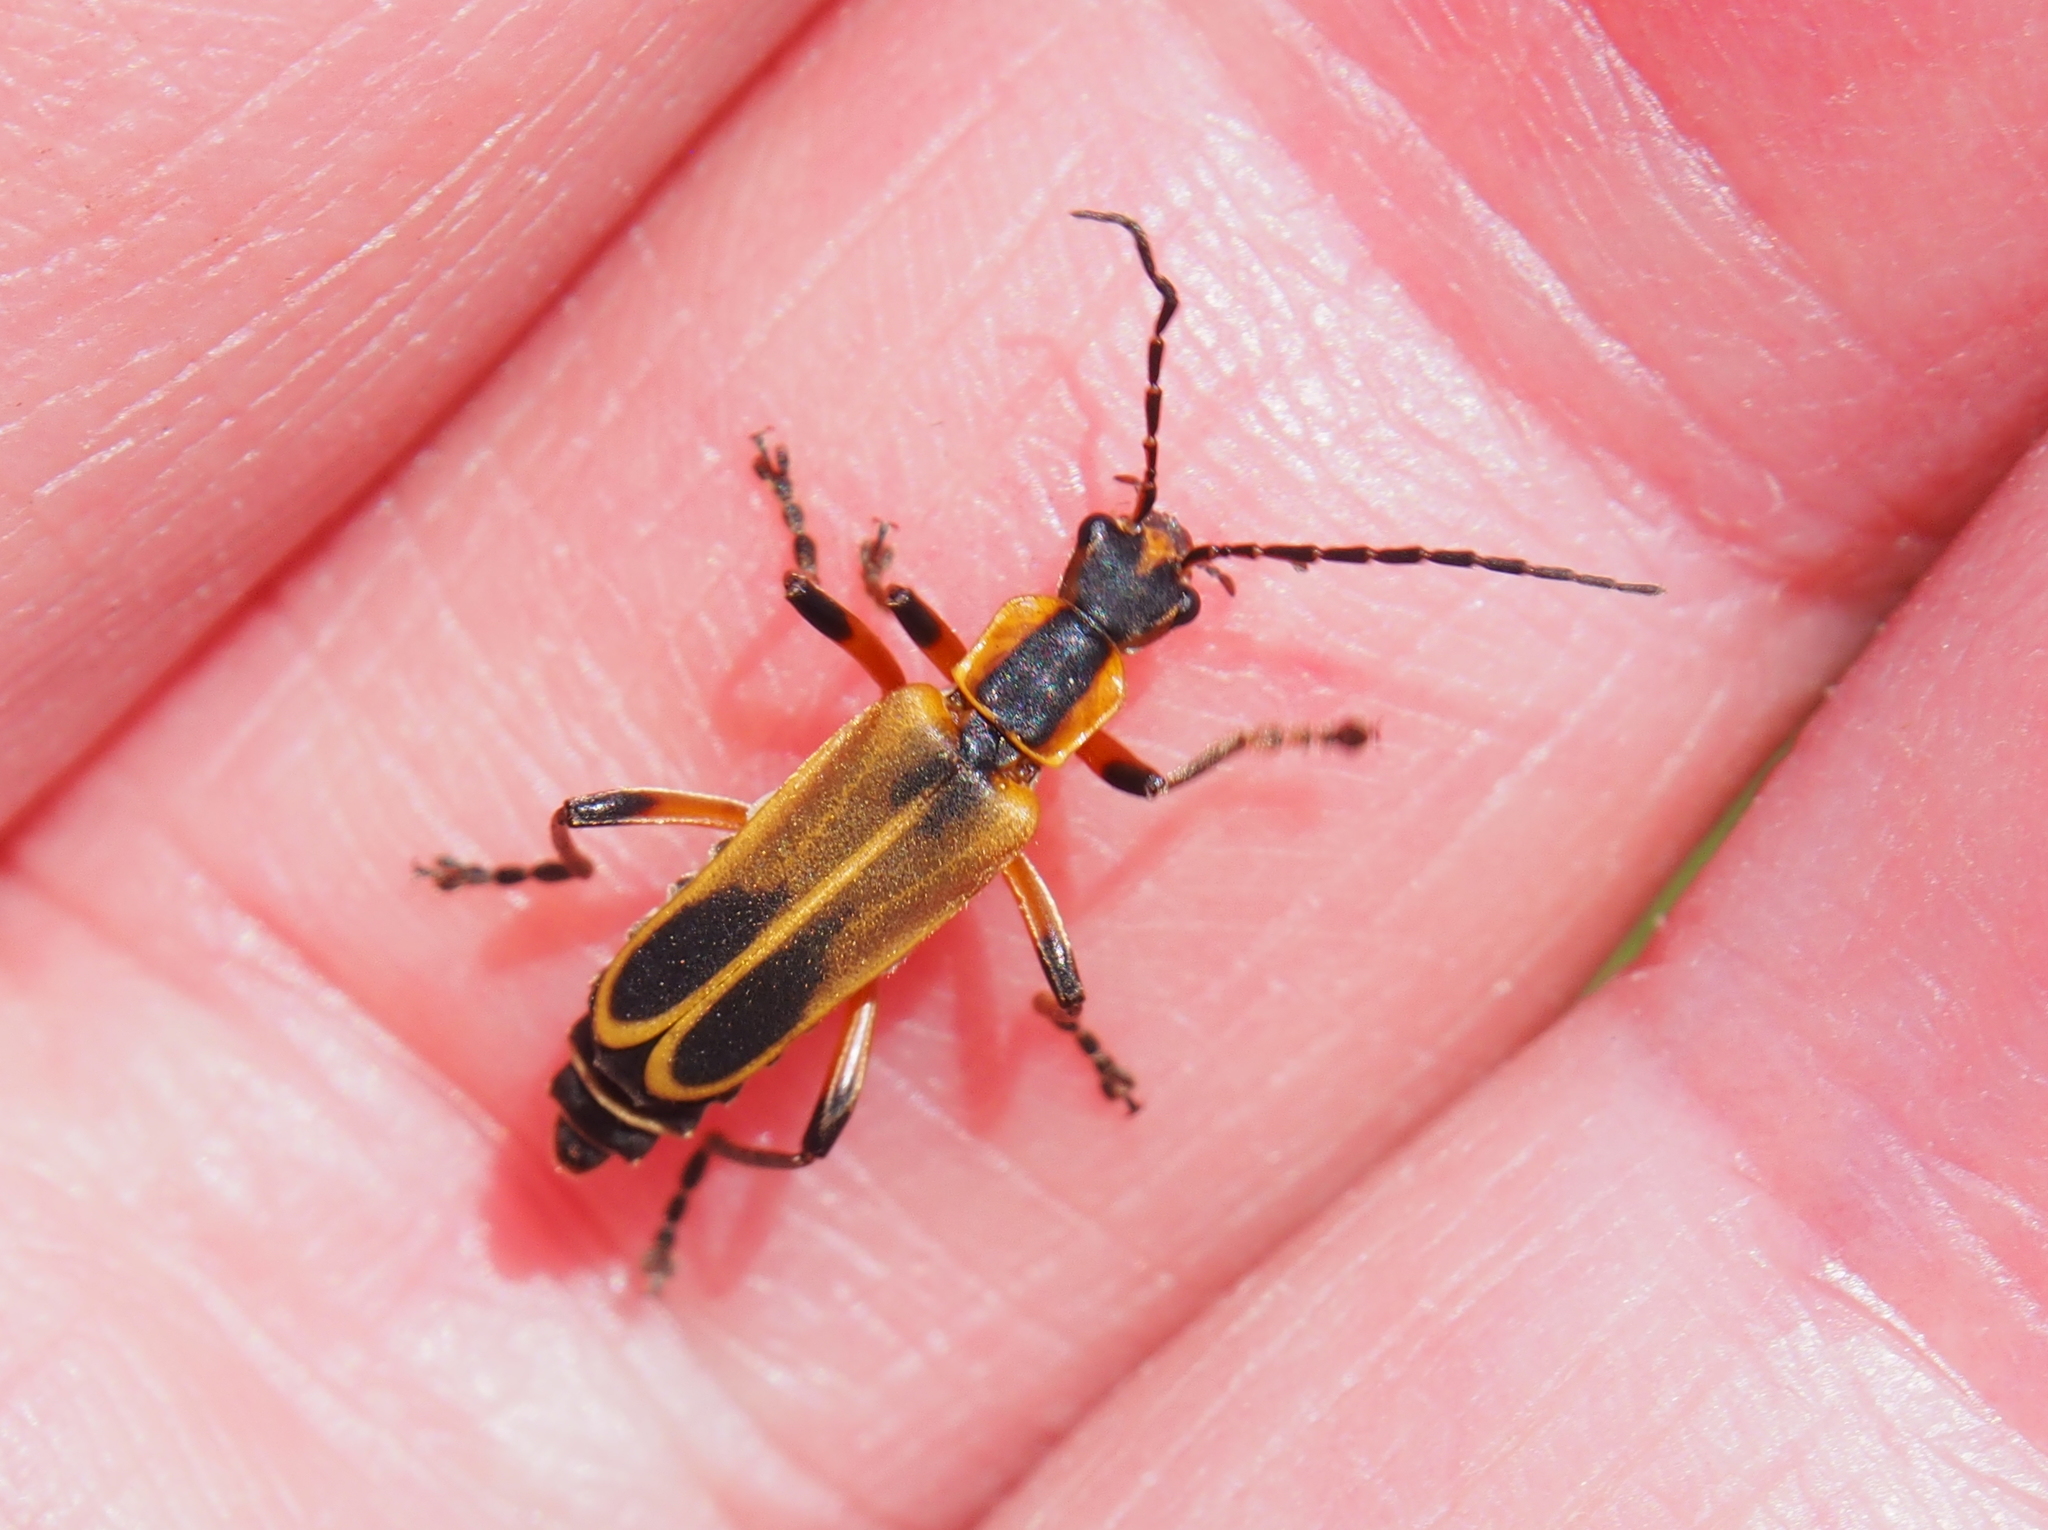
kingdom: Animalia
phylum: Arthropoda
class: Insecta
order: Coleoptera
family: Cantharidae
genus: Chauliognathus
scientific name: Chauliognathus marginatus
